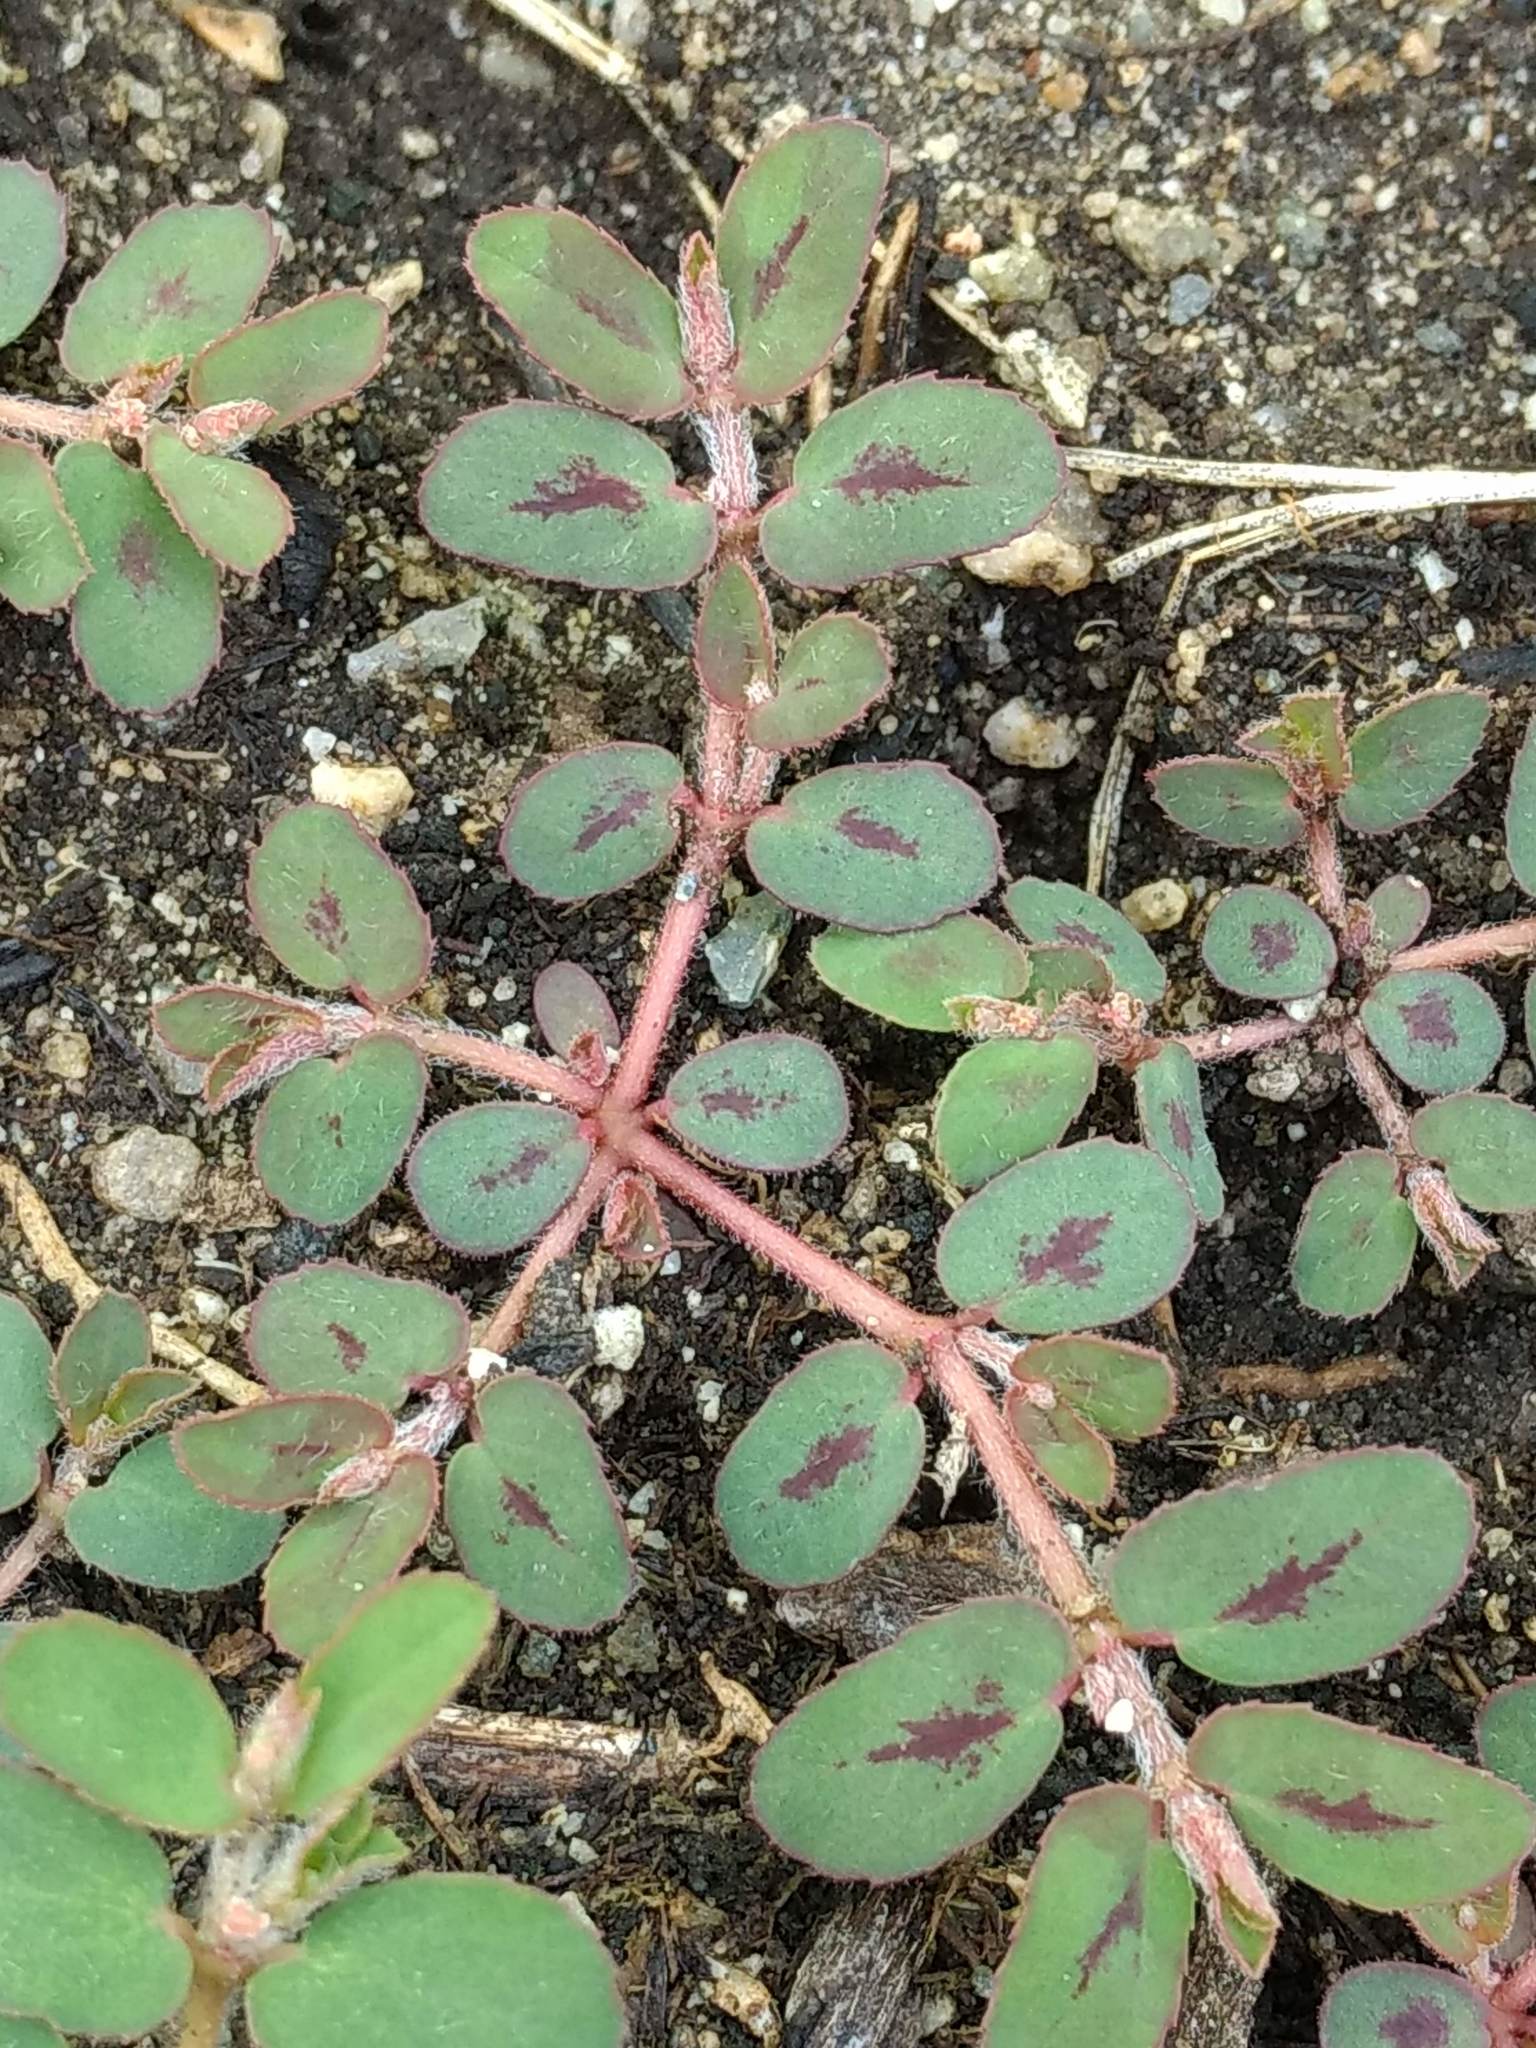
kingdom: Plantae
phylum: Tracheophyta
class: Magnoliopsida
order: Malpighiales
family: Euphorbiaceae
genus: Euphorbia
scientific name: Euphorbia maculata
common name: Spotted spurge
